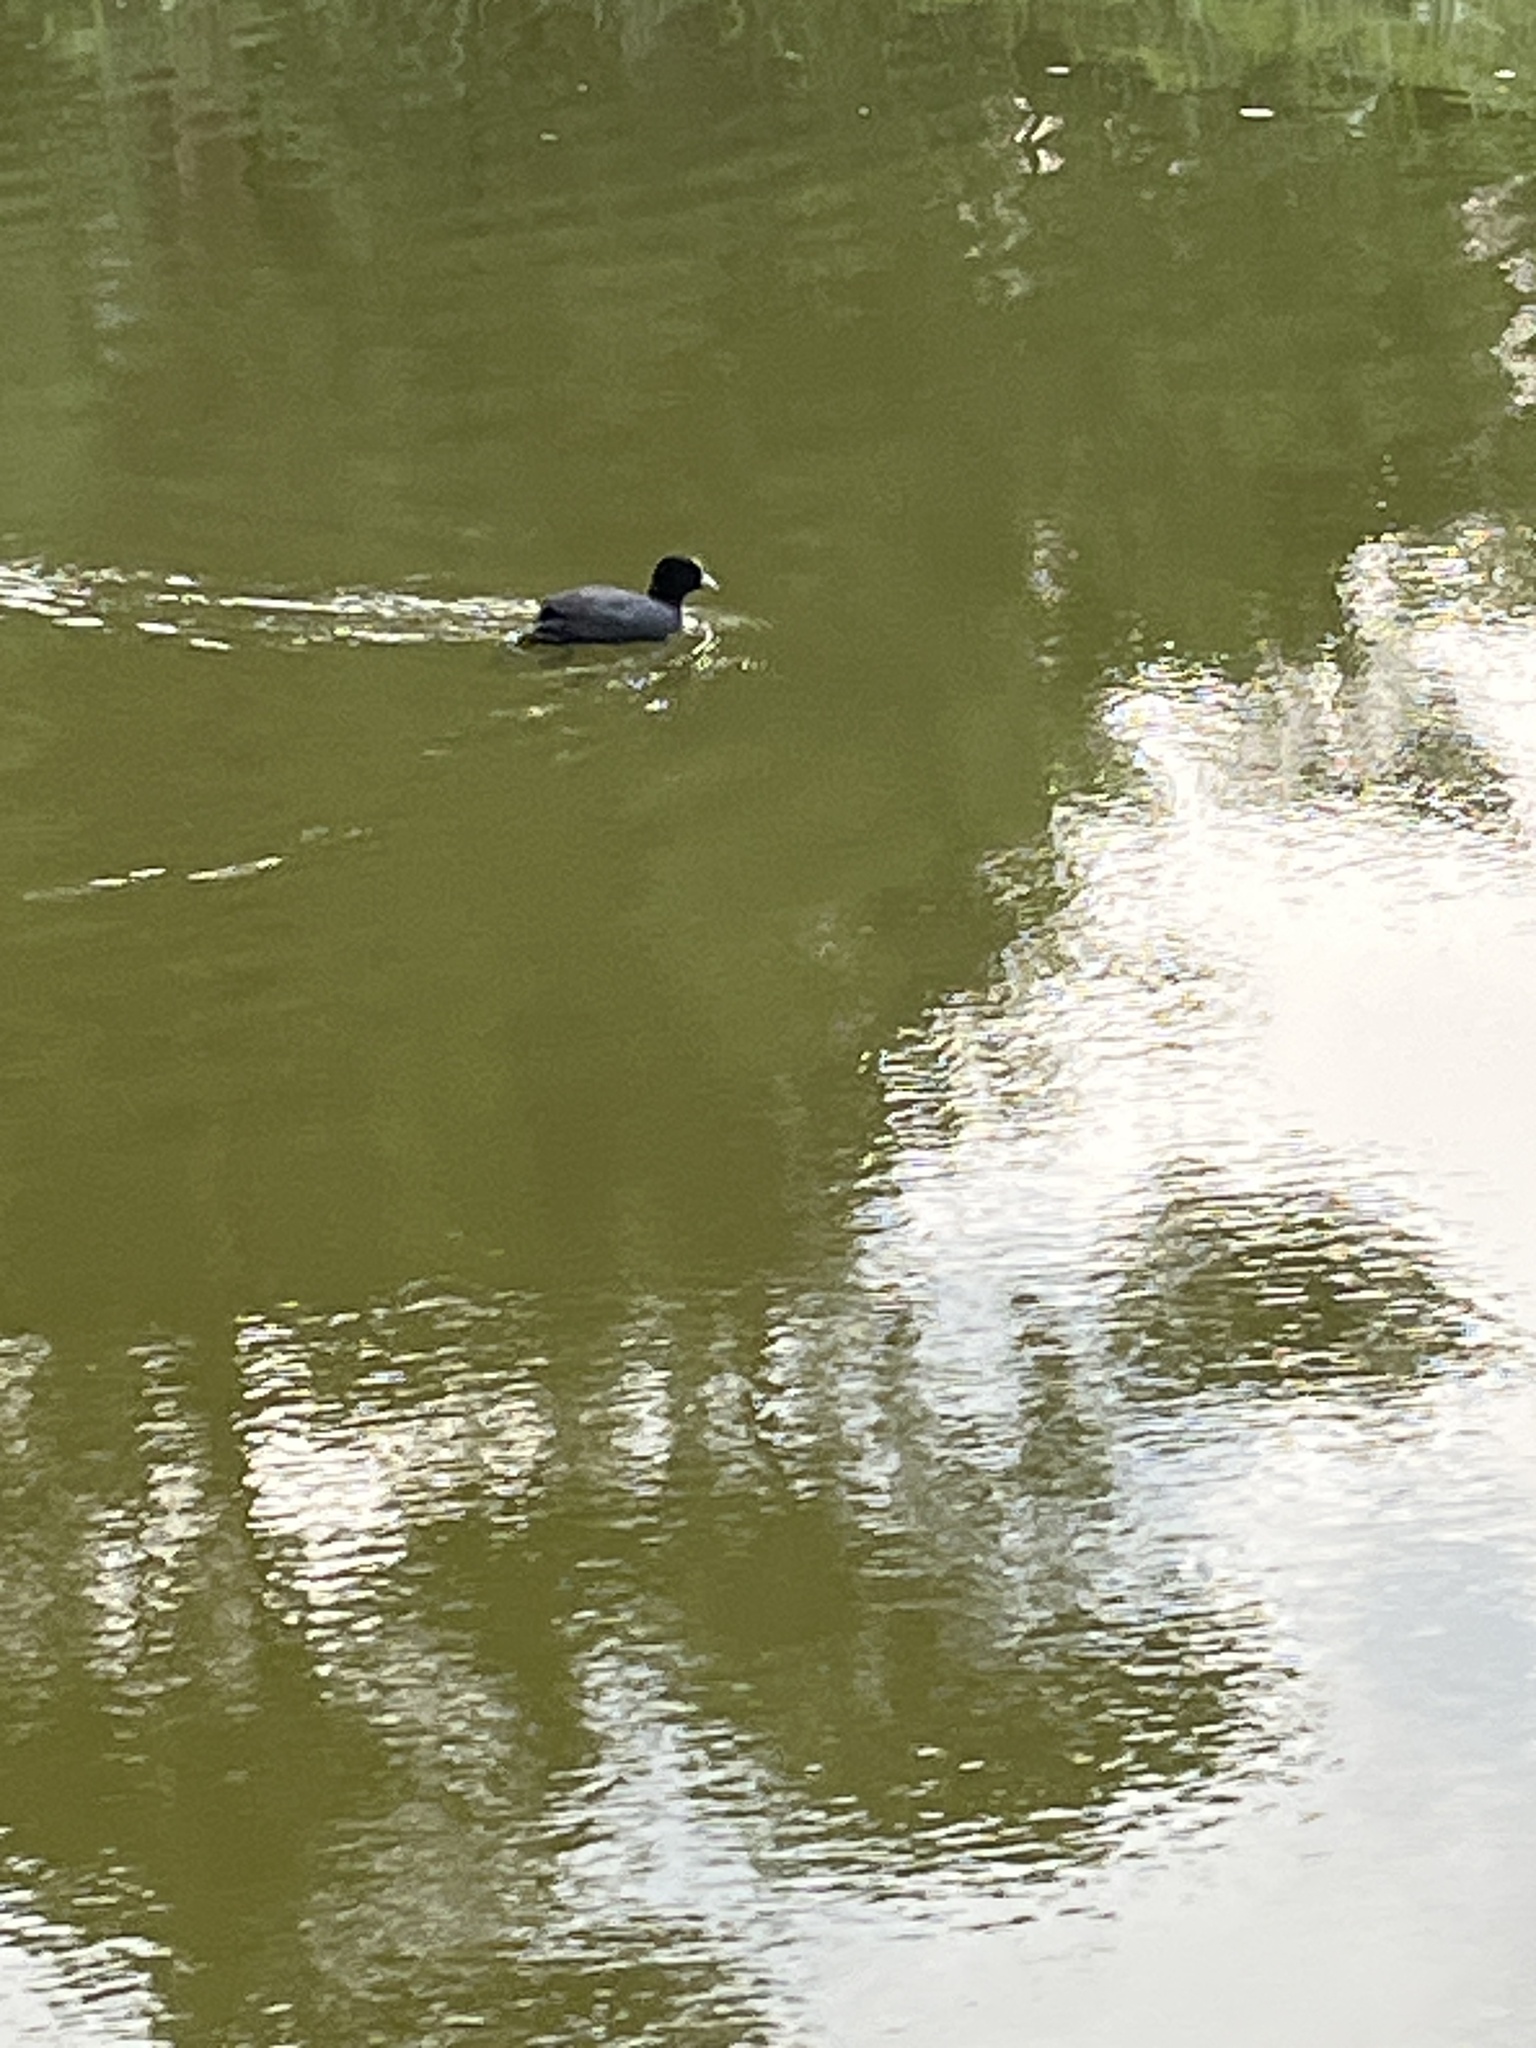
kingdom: Animalia
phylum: Chordata
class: Aves
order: Gruiformes
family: Rallidae
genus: Fulica
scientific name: Fulica atra
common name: Eurasian coot
